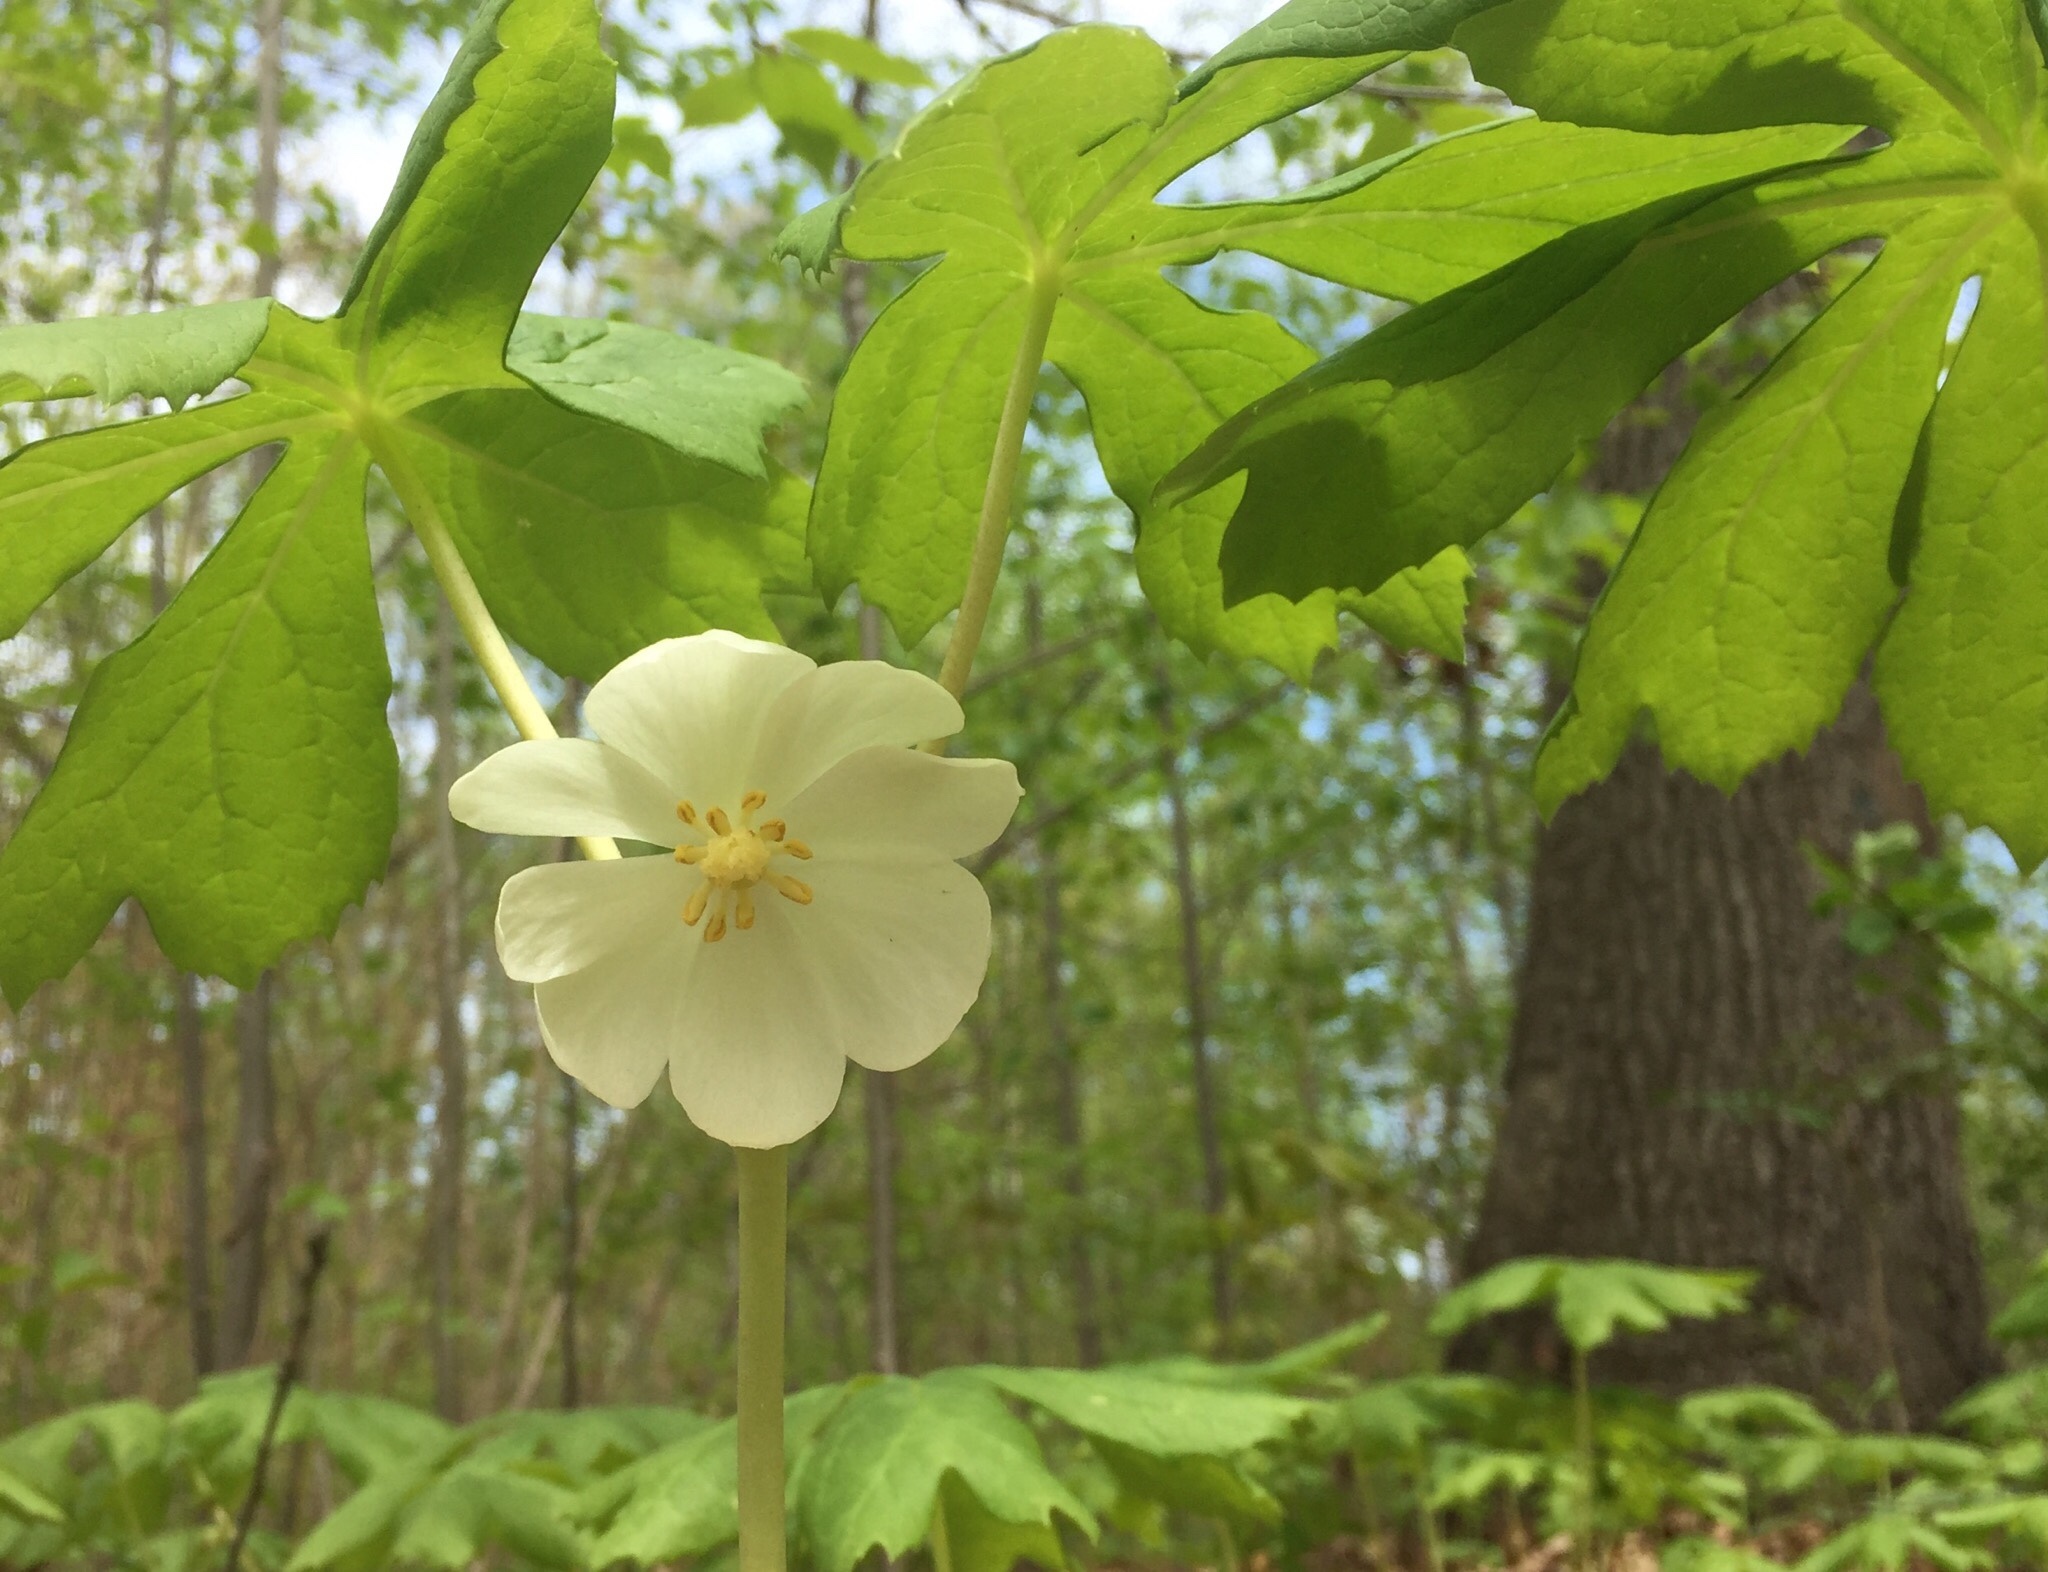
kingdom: Plantae
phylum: Tracheophyta
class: Magnoliopsida
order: Ranunculales
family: Berberidaceae
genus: Podophyllum
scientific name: Podophyllum peltatum
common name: Wild mandrake
